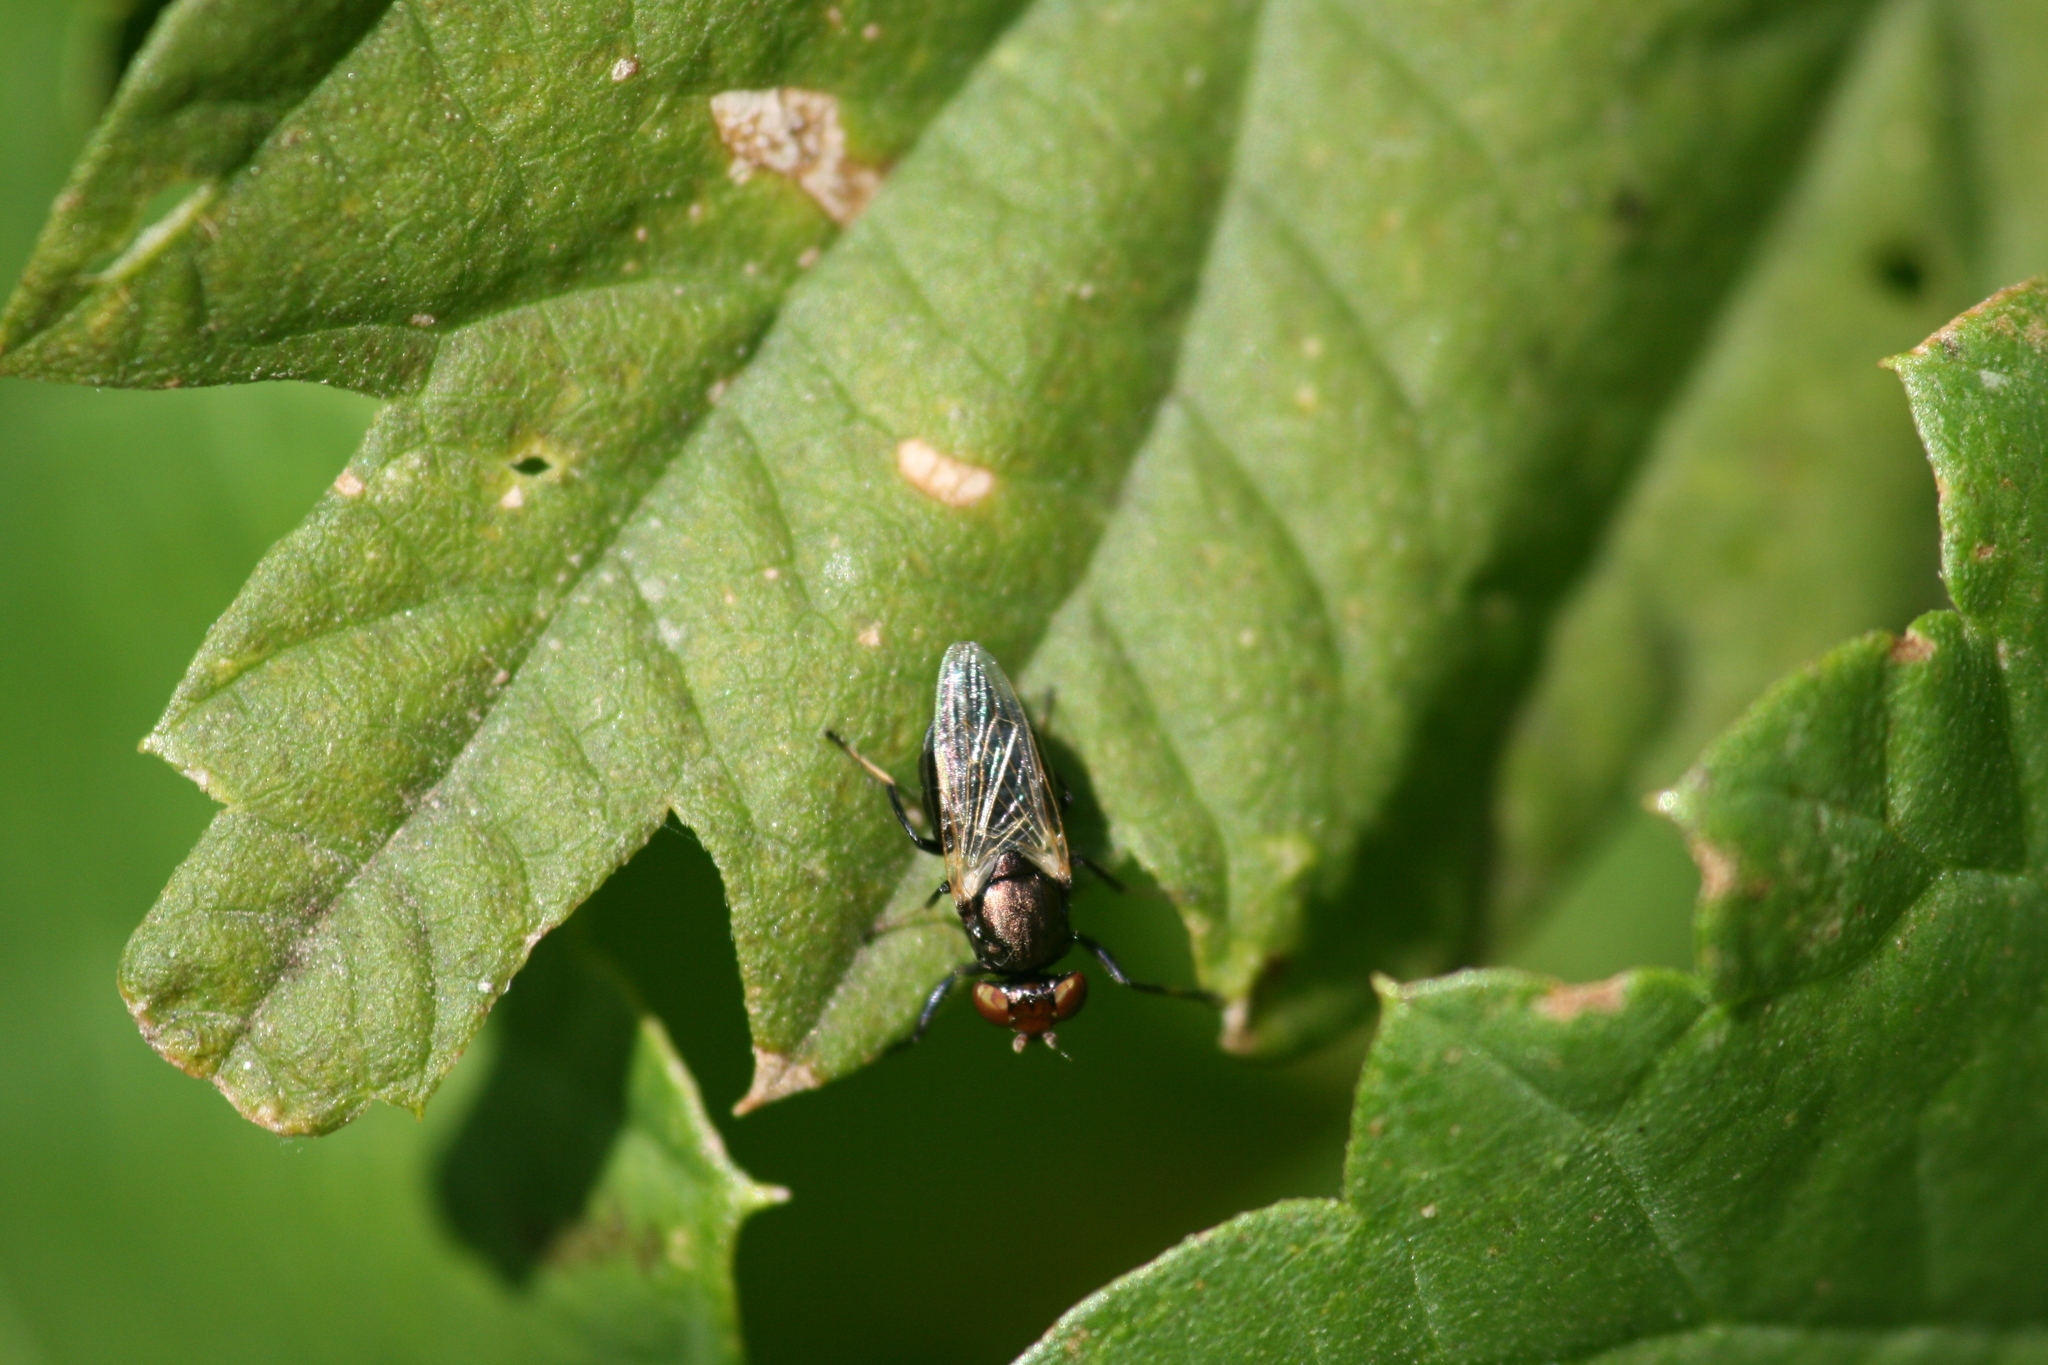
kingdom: Animalia
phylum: Arthropoda
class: Insecta
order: Diptera
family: Ulidiidae
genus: Physiphora
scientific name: Physiphora alceae
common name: Picture-winged fly
